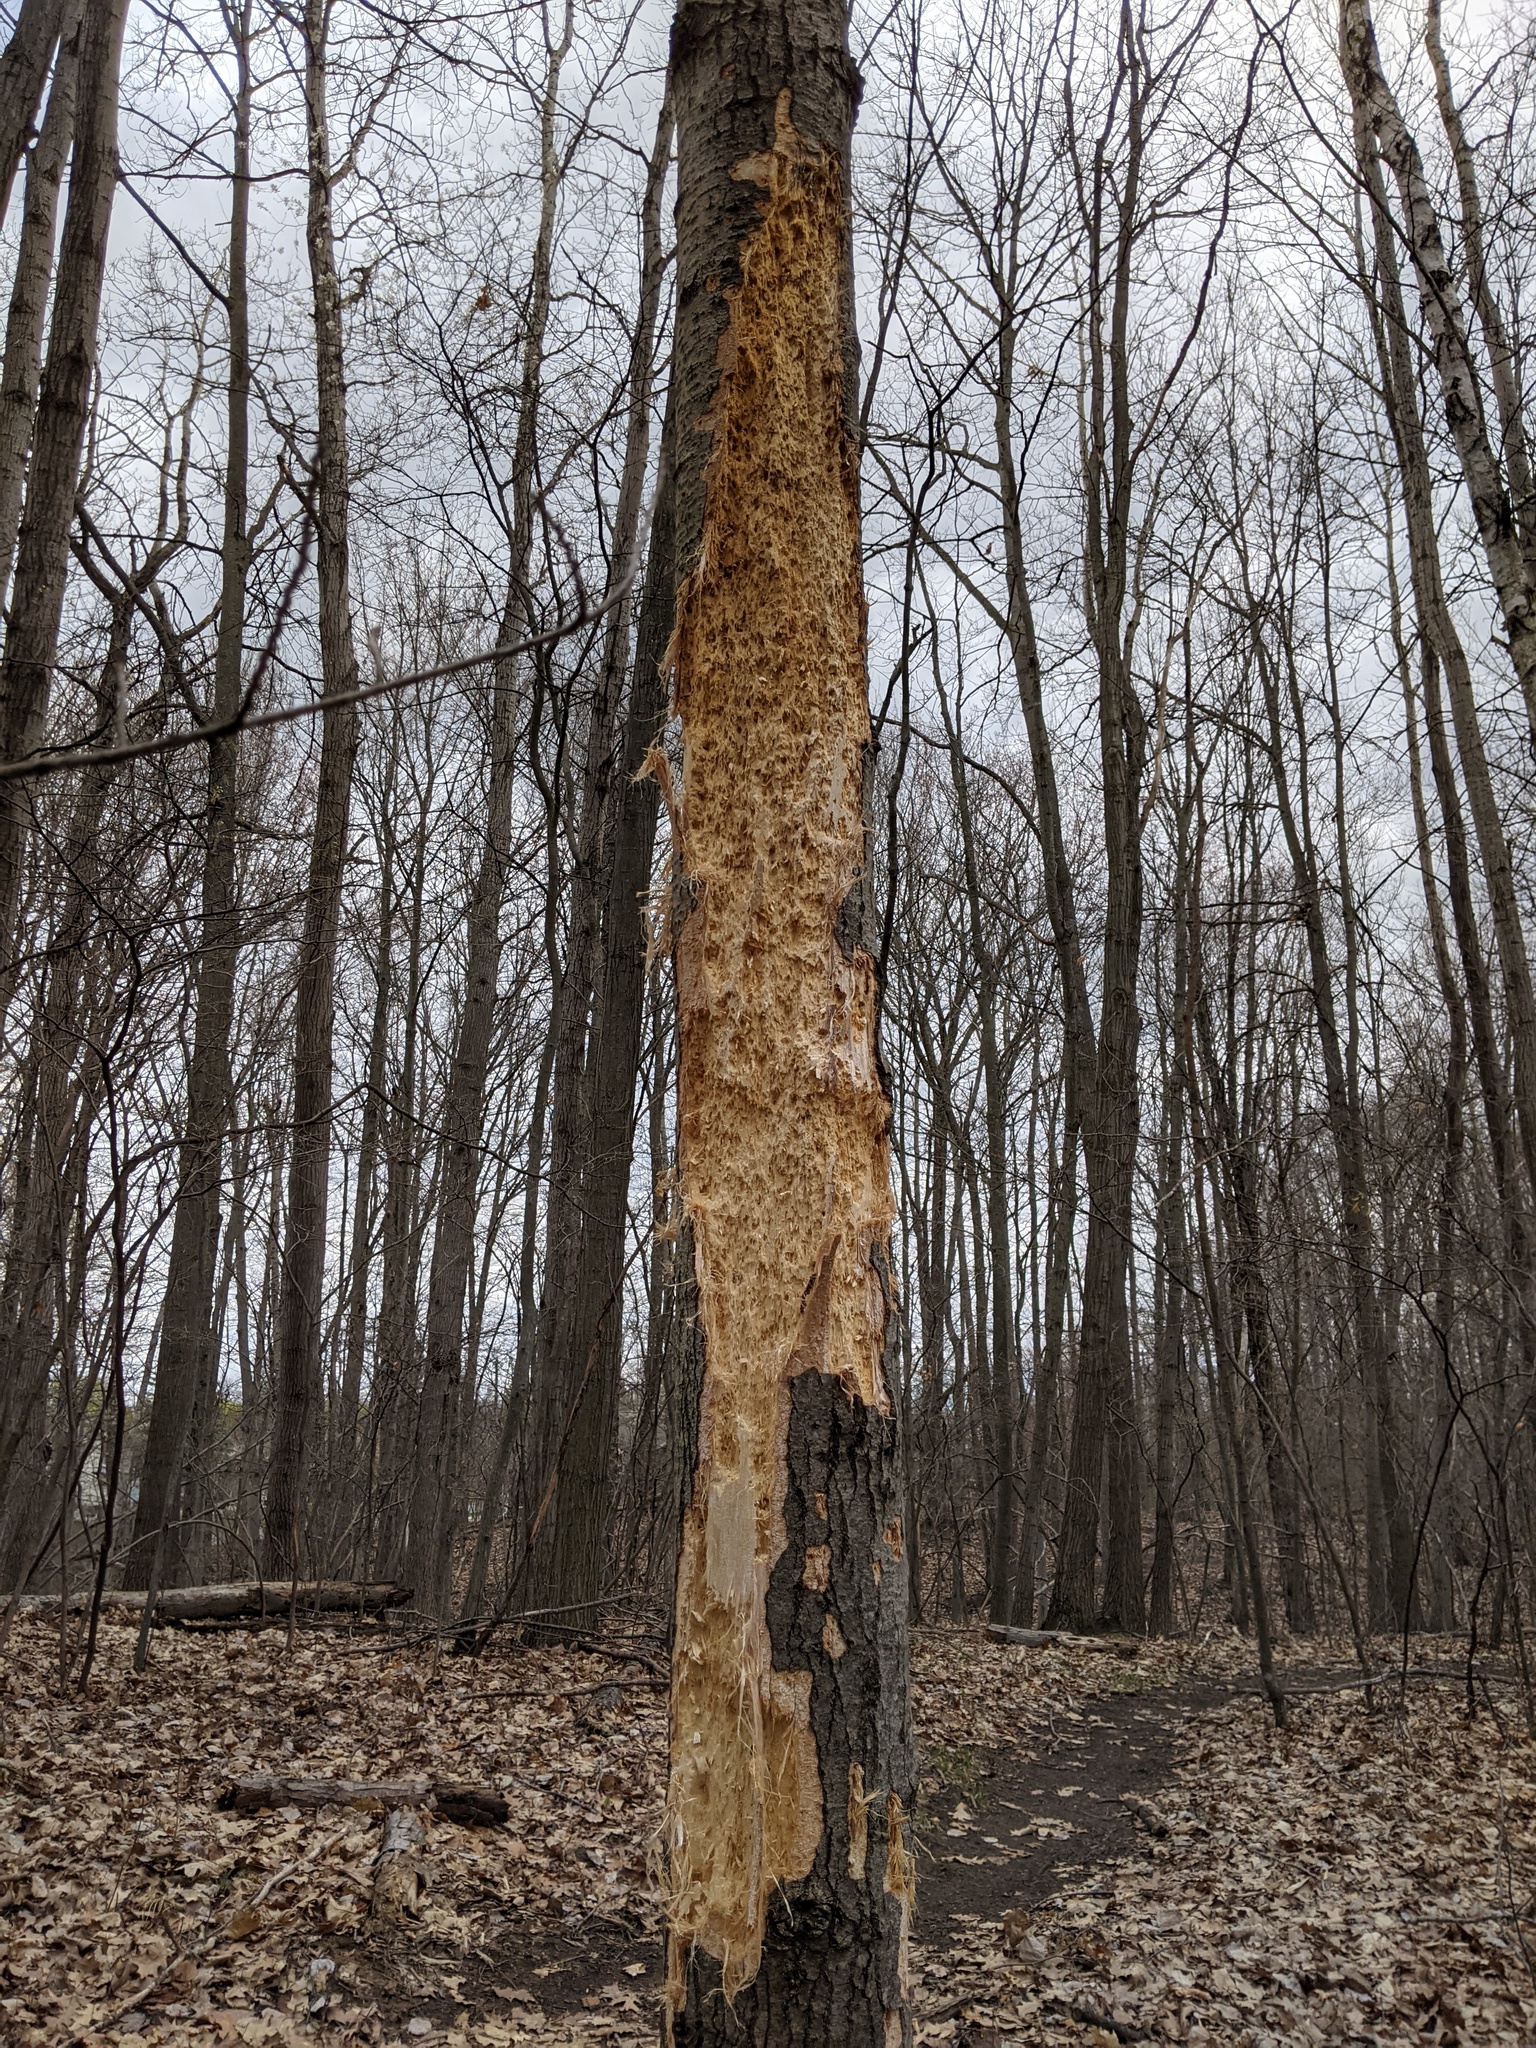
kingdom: Animalia
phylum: Chordata
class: Aves
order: Piciformes
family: Picidae
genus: Dryocopus
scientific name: Dryocopus pileatus
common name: Pileated woodpecker
